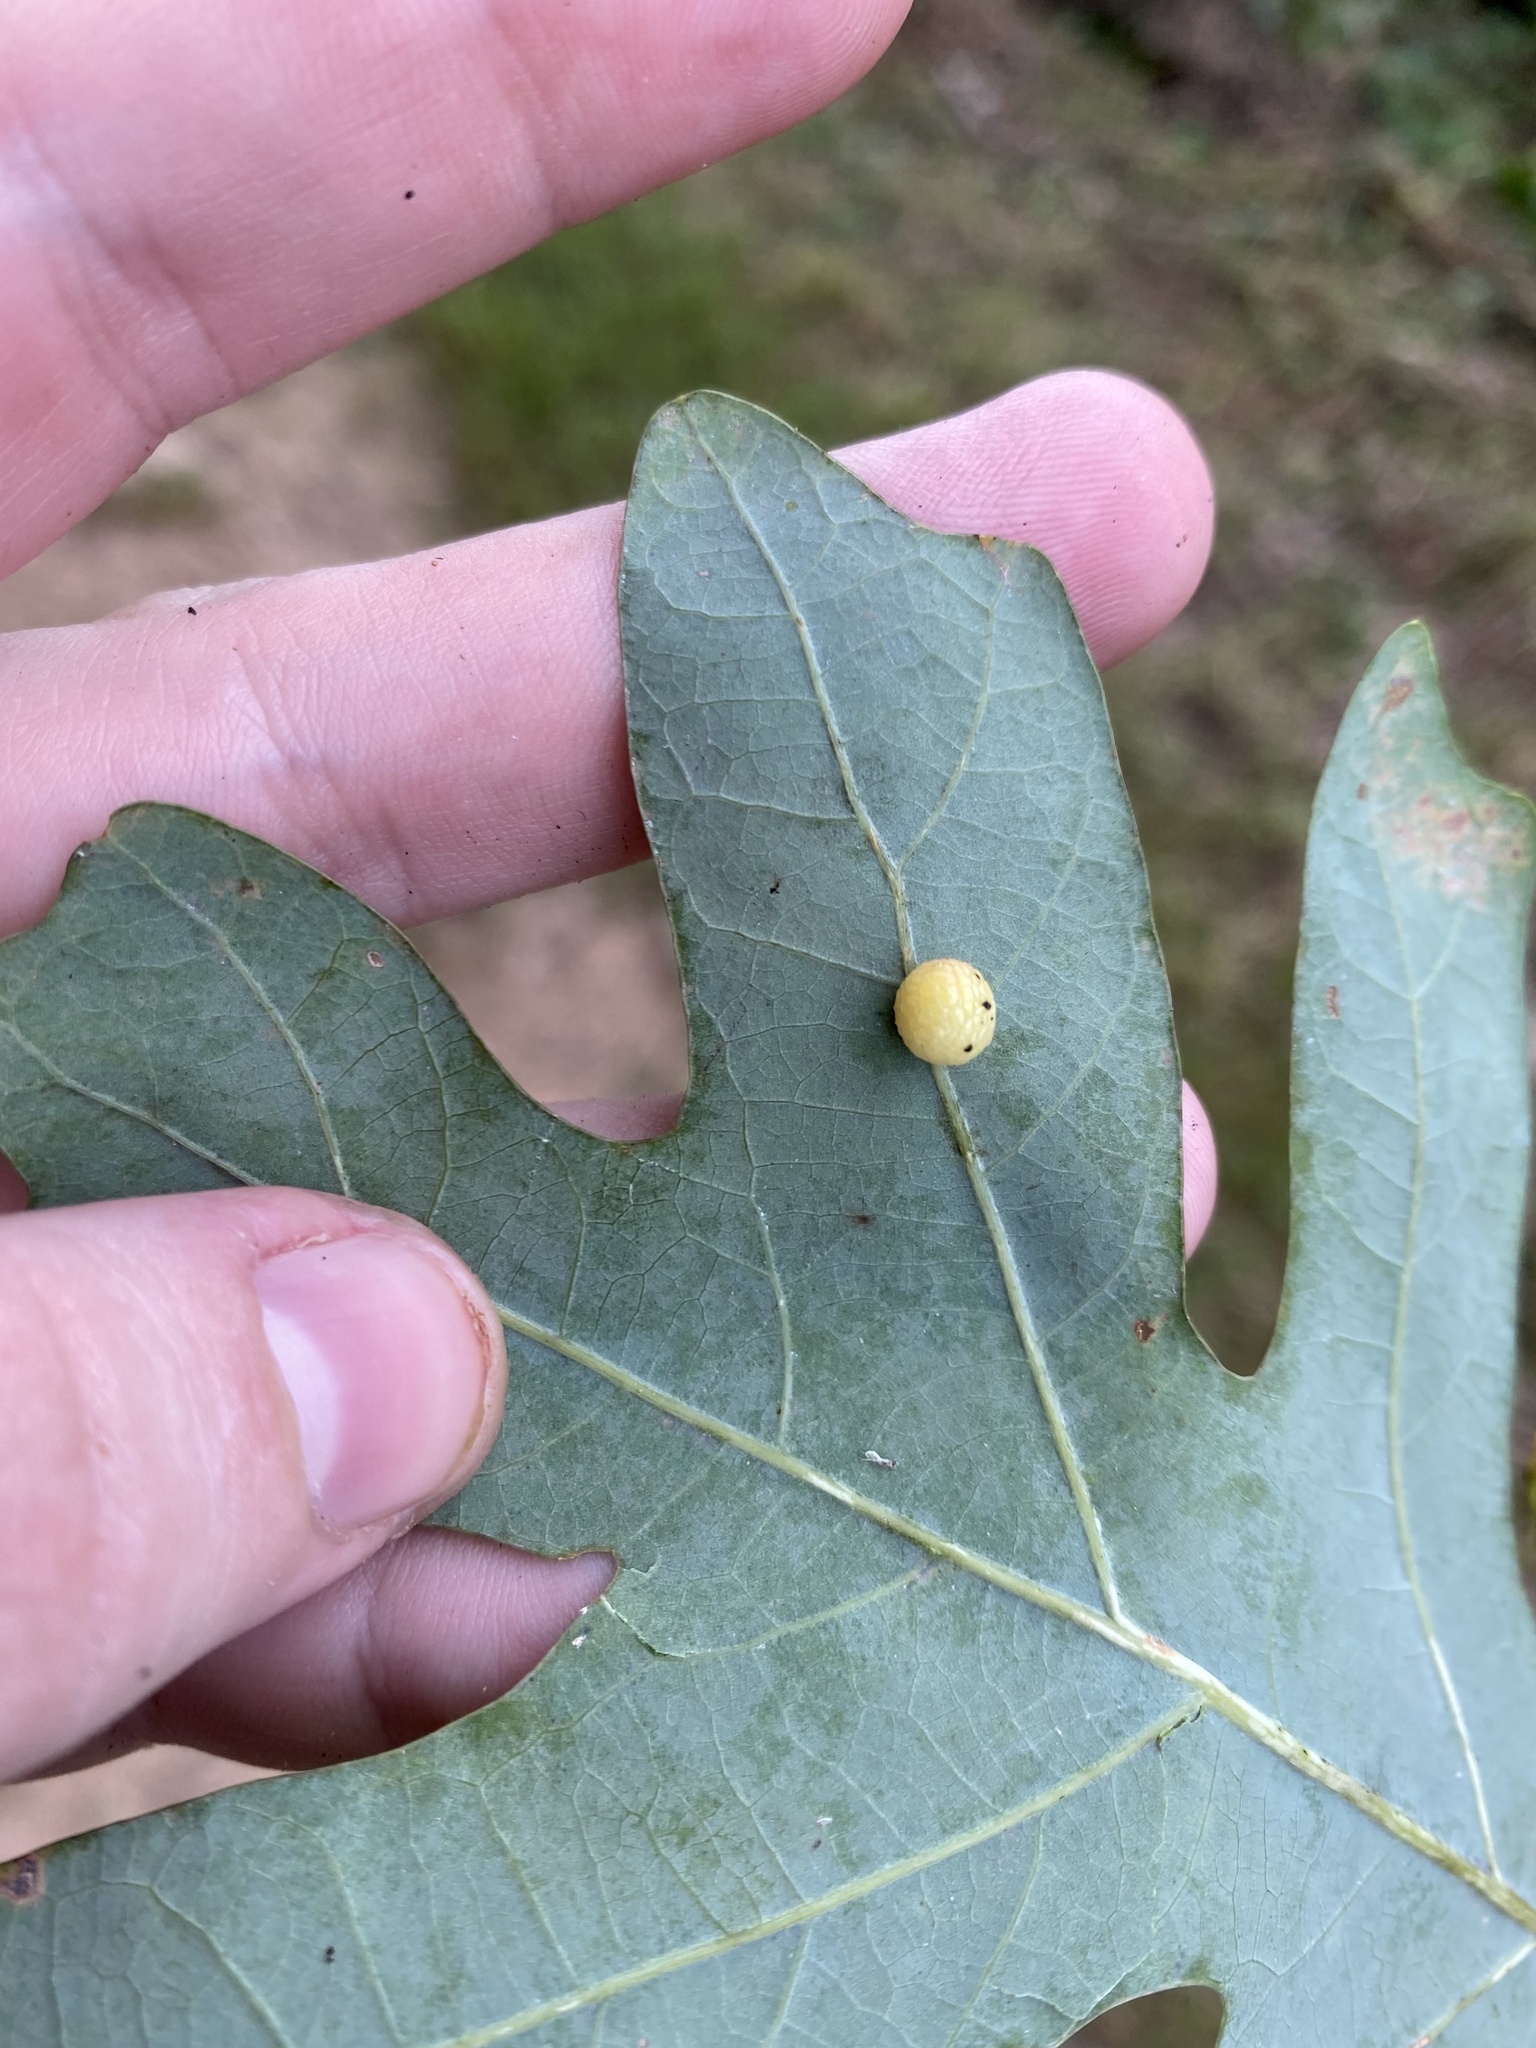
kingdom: Animalia
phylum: Arthropoda
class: Insecta
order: Hymenoptera
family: Cynipidae
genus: Acraspis
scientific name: Acraspis
